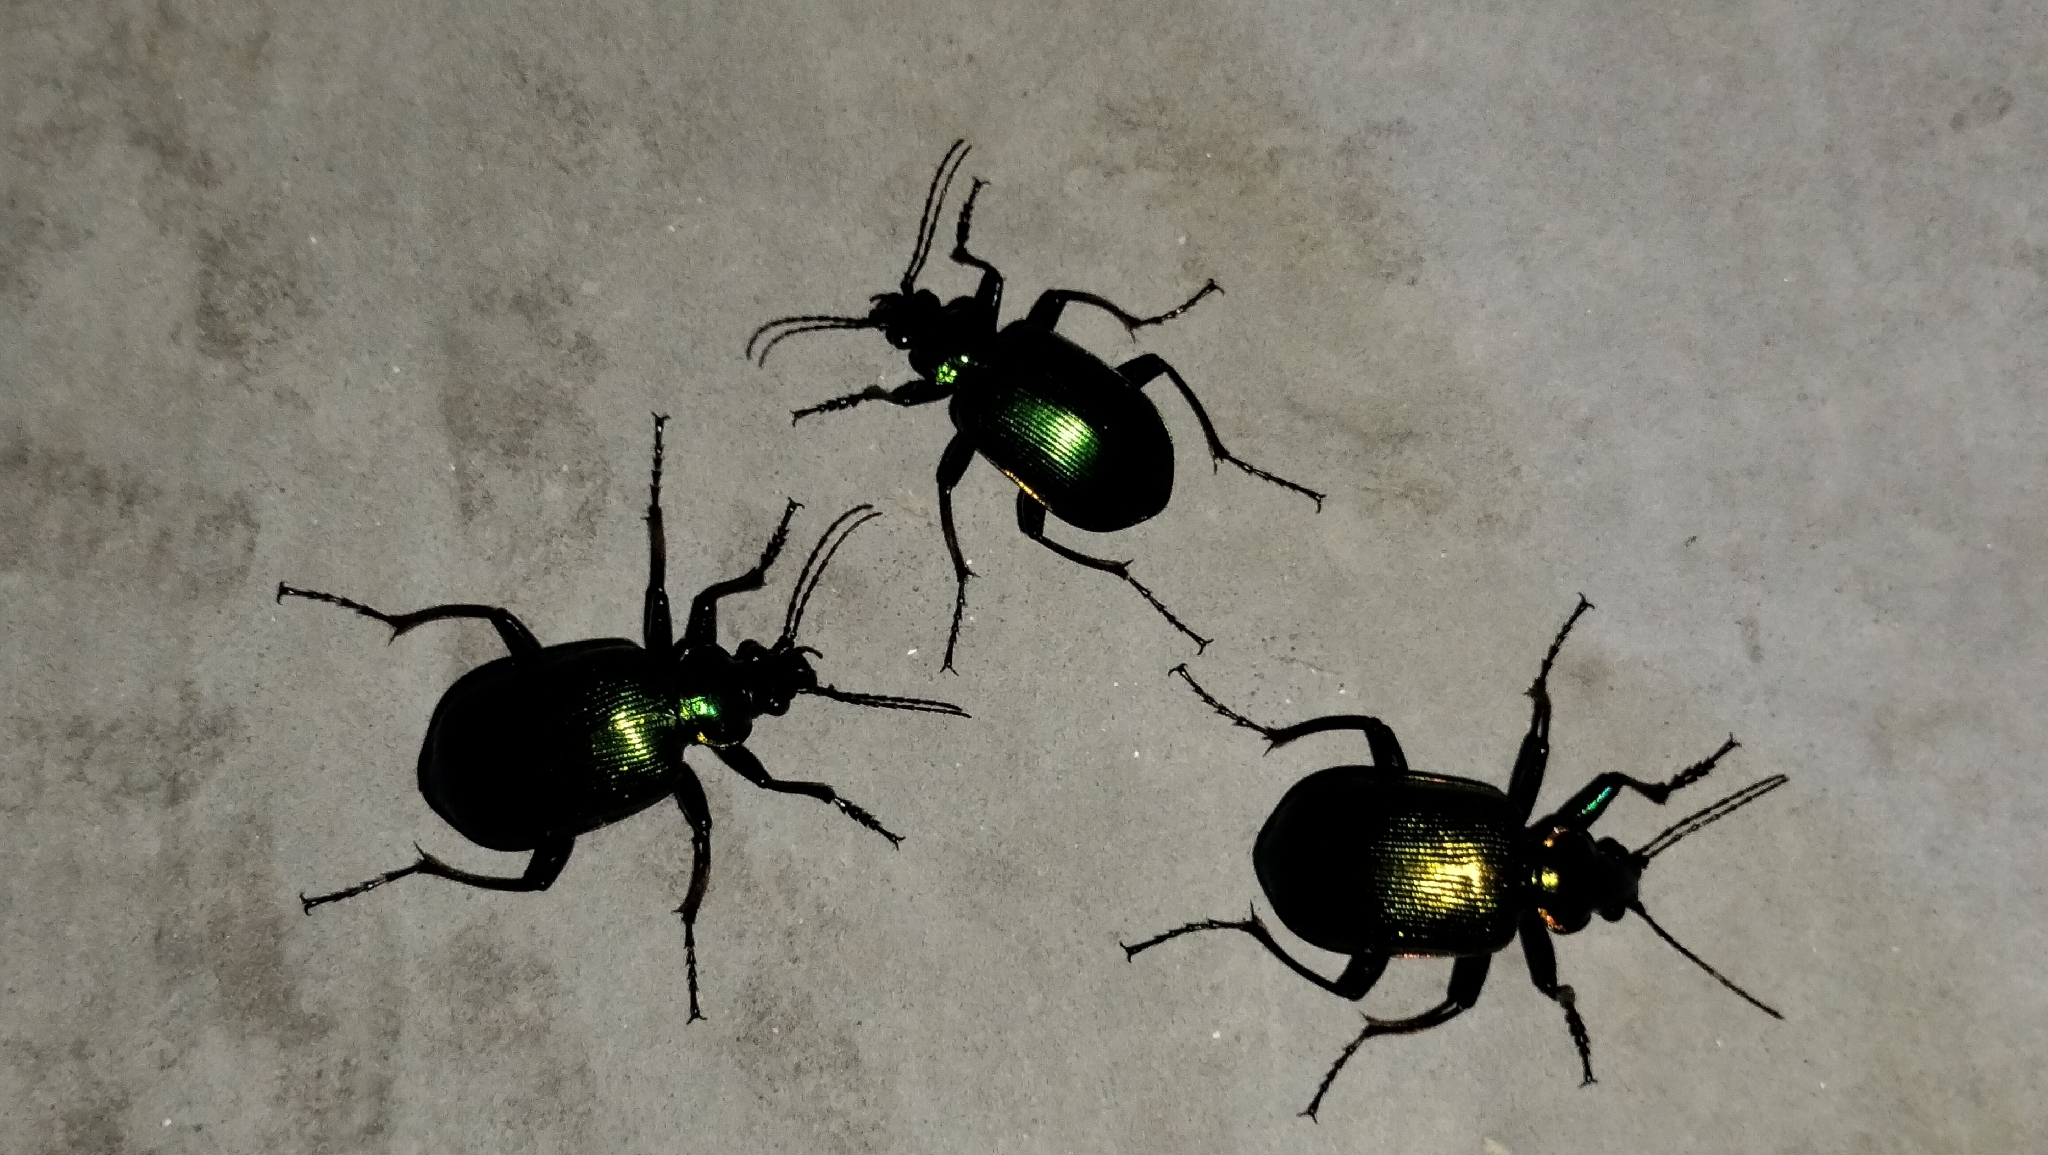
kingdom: Animalia
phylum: Arthropoda
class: Insecta
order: Coleoptera
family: Carabidae
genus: Calosoma
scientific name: Calosoma aurocinctum
